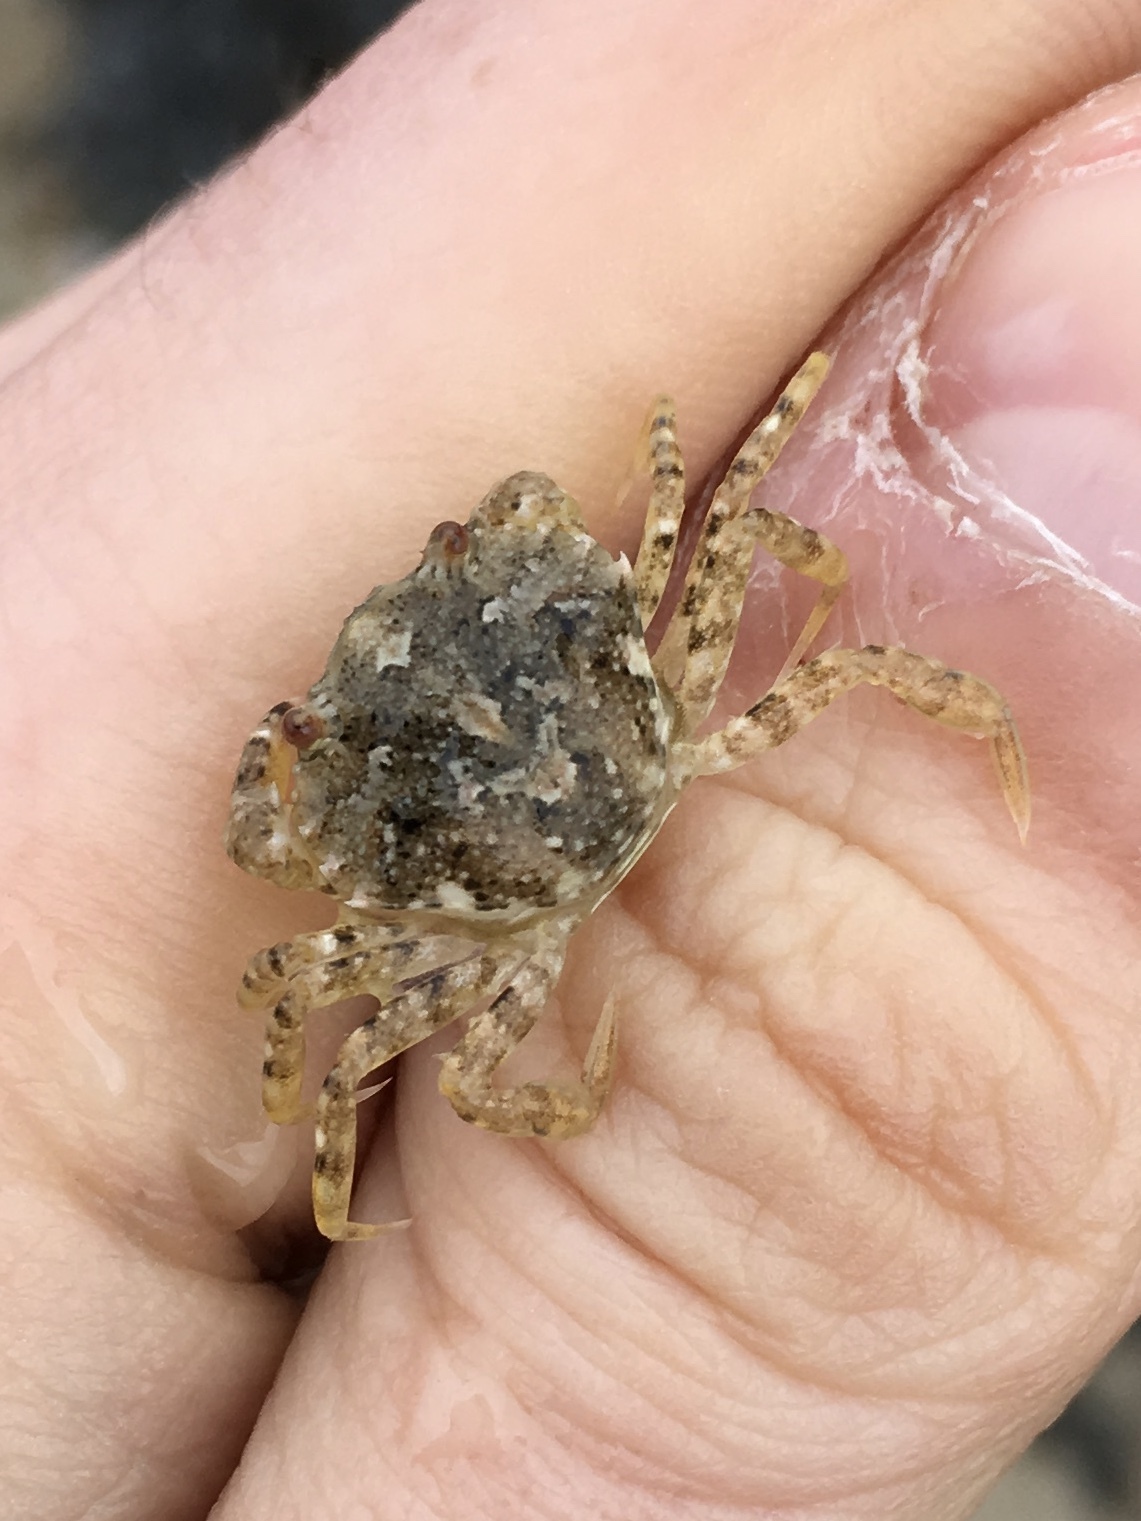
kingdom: Animalia
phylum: Arthropoda
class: Malacostraca
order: Decapoda
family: Carcinidae
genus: Carcinus
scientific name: Carcinus maenas
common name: European green crab
